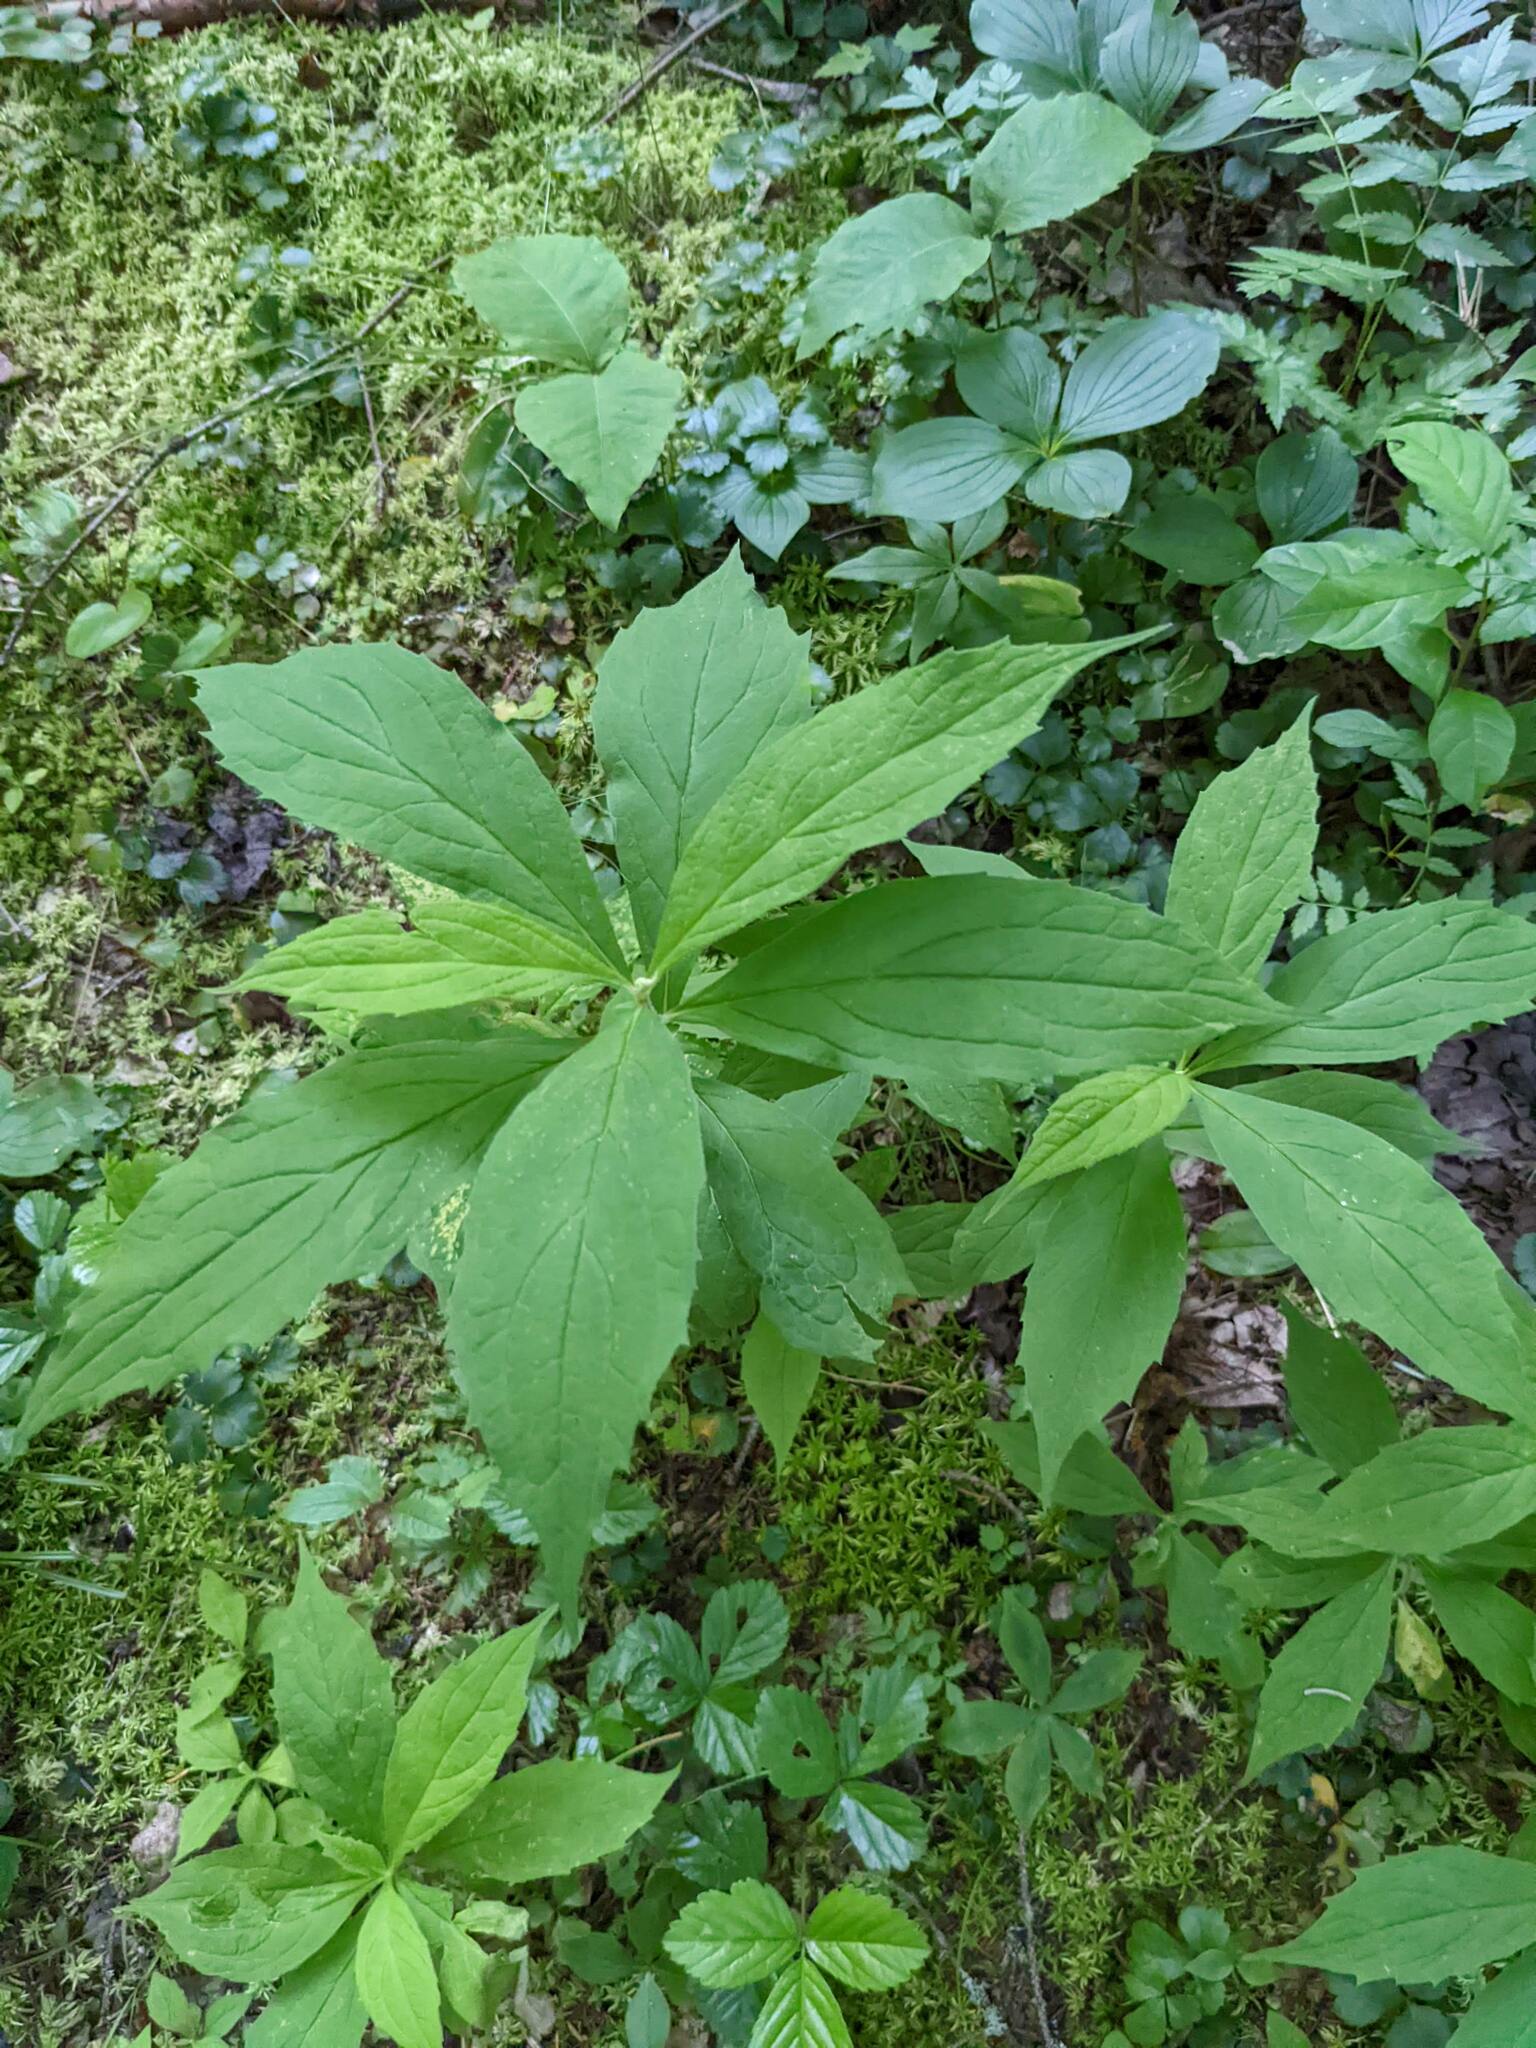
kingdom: Plantae
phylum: Tracheophyta
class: Magnoliopsida
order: Asterales
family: Asteraceae
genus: Oclemena
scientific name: Oclemena acuminata
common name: Mountain aster
